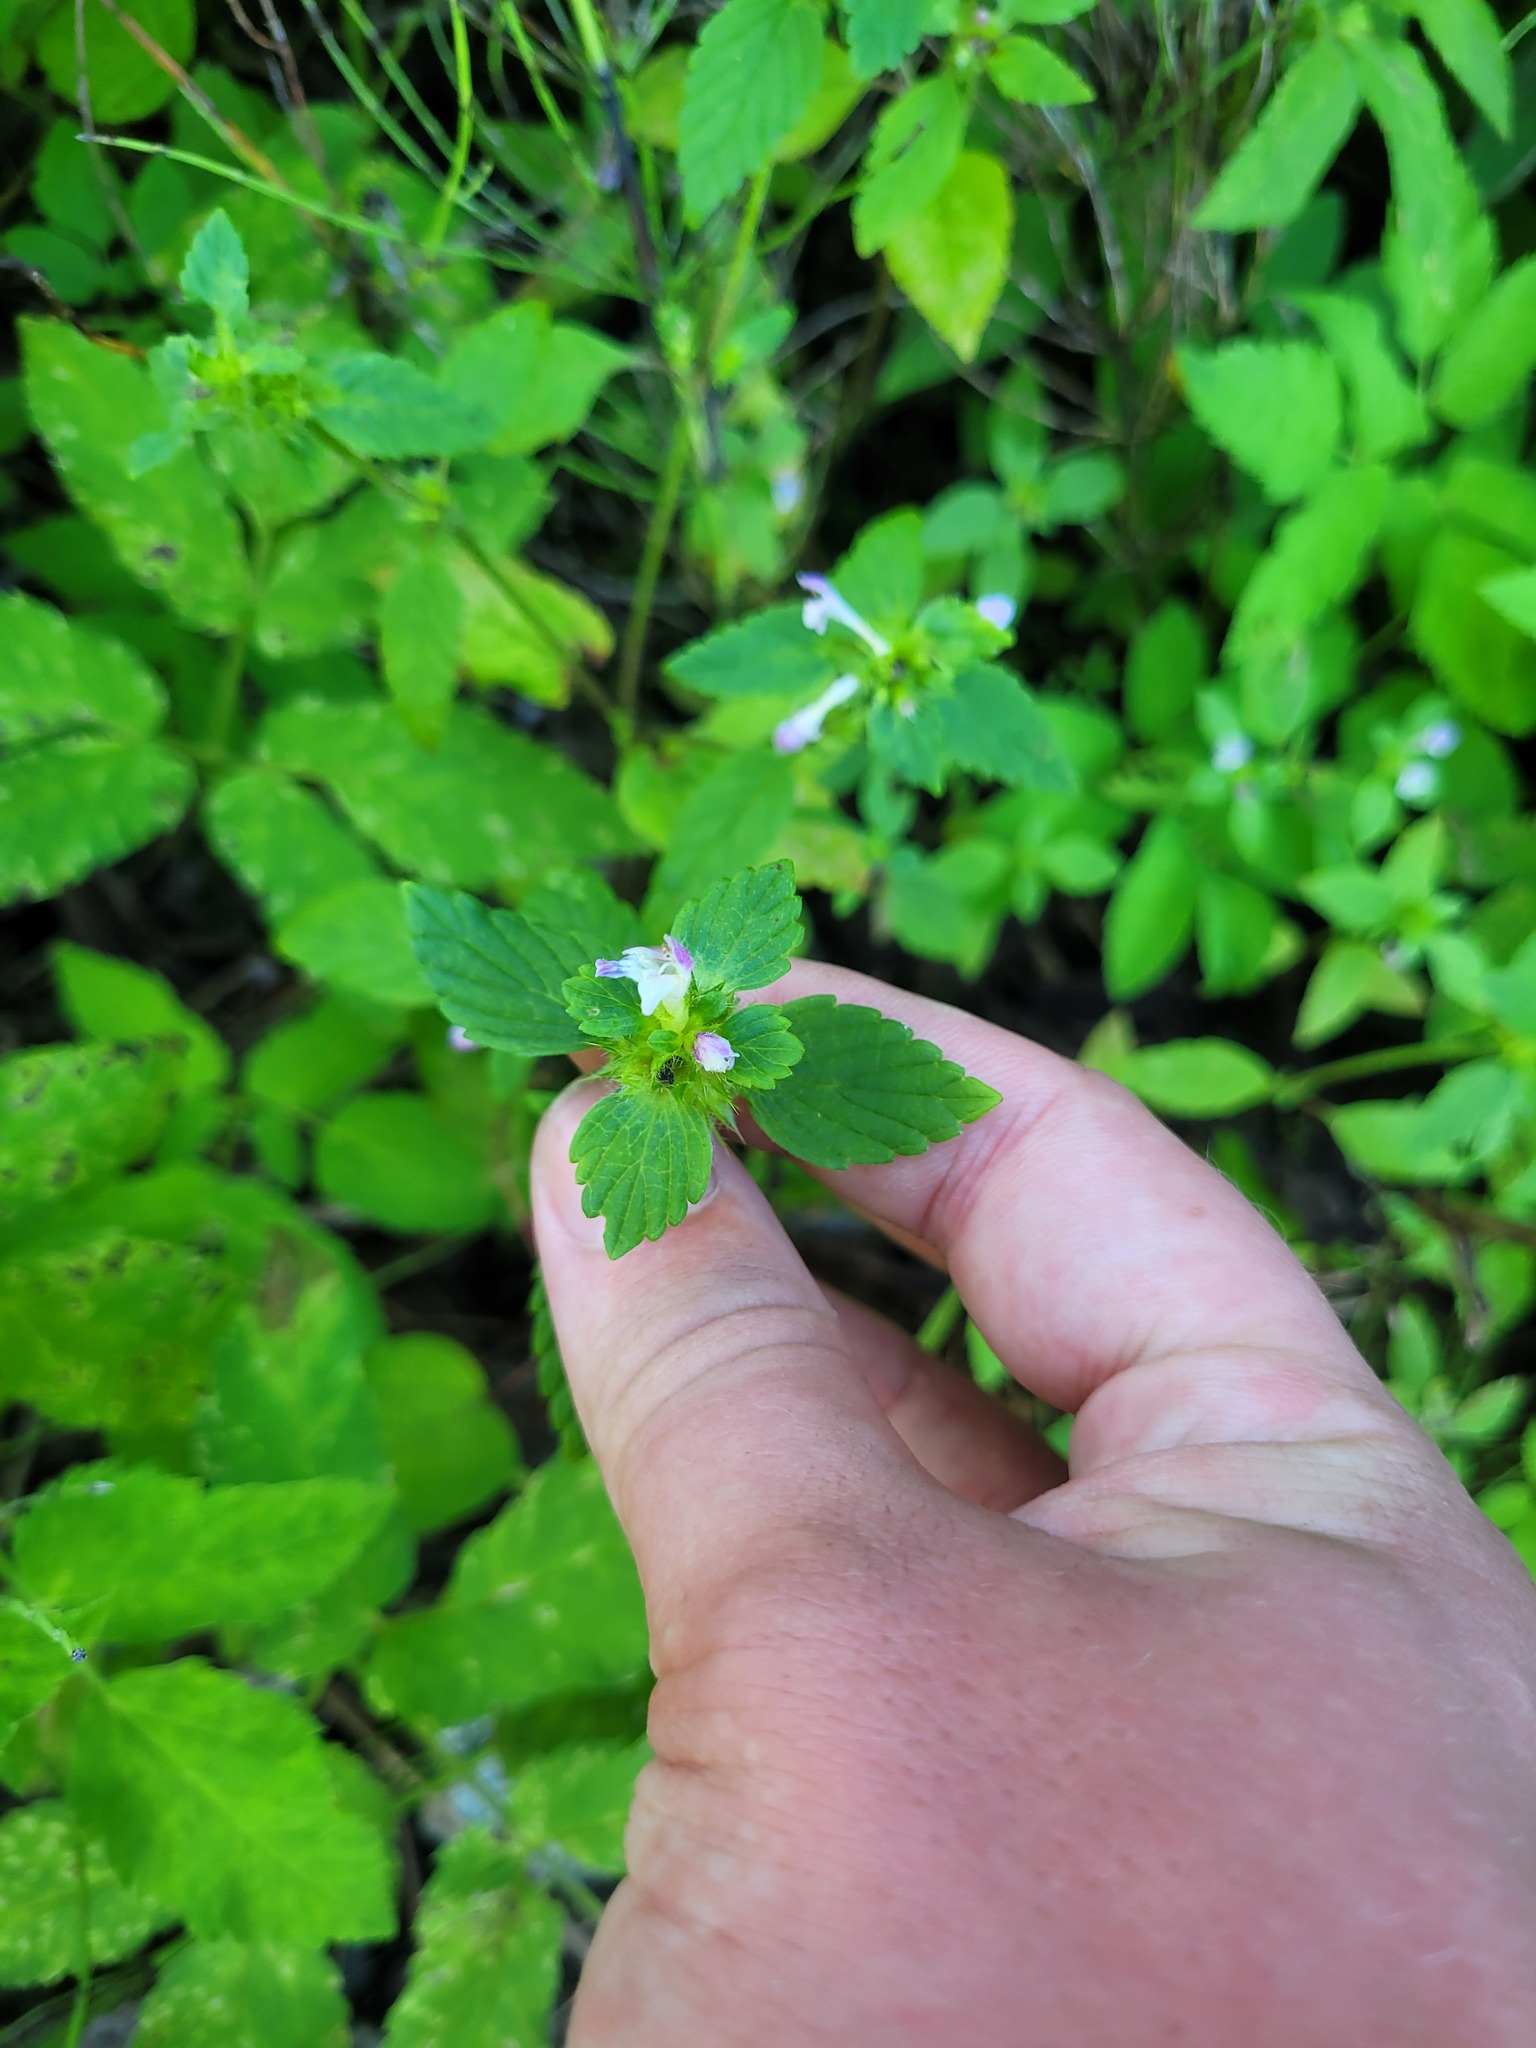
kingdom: Plantae
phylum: Tracheophyta
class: Magnoliopsida
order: Lamiales
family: Lamiaceae
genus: Galeopsis
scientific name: Galeopsis bifida
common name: Bifid hemp-nettle
